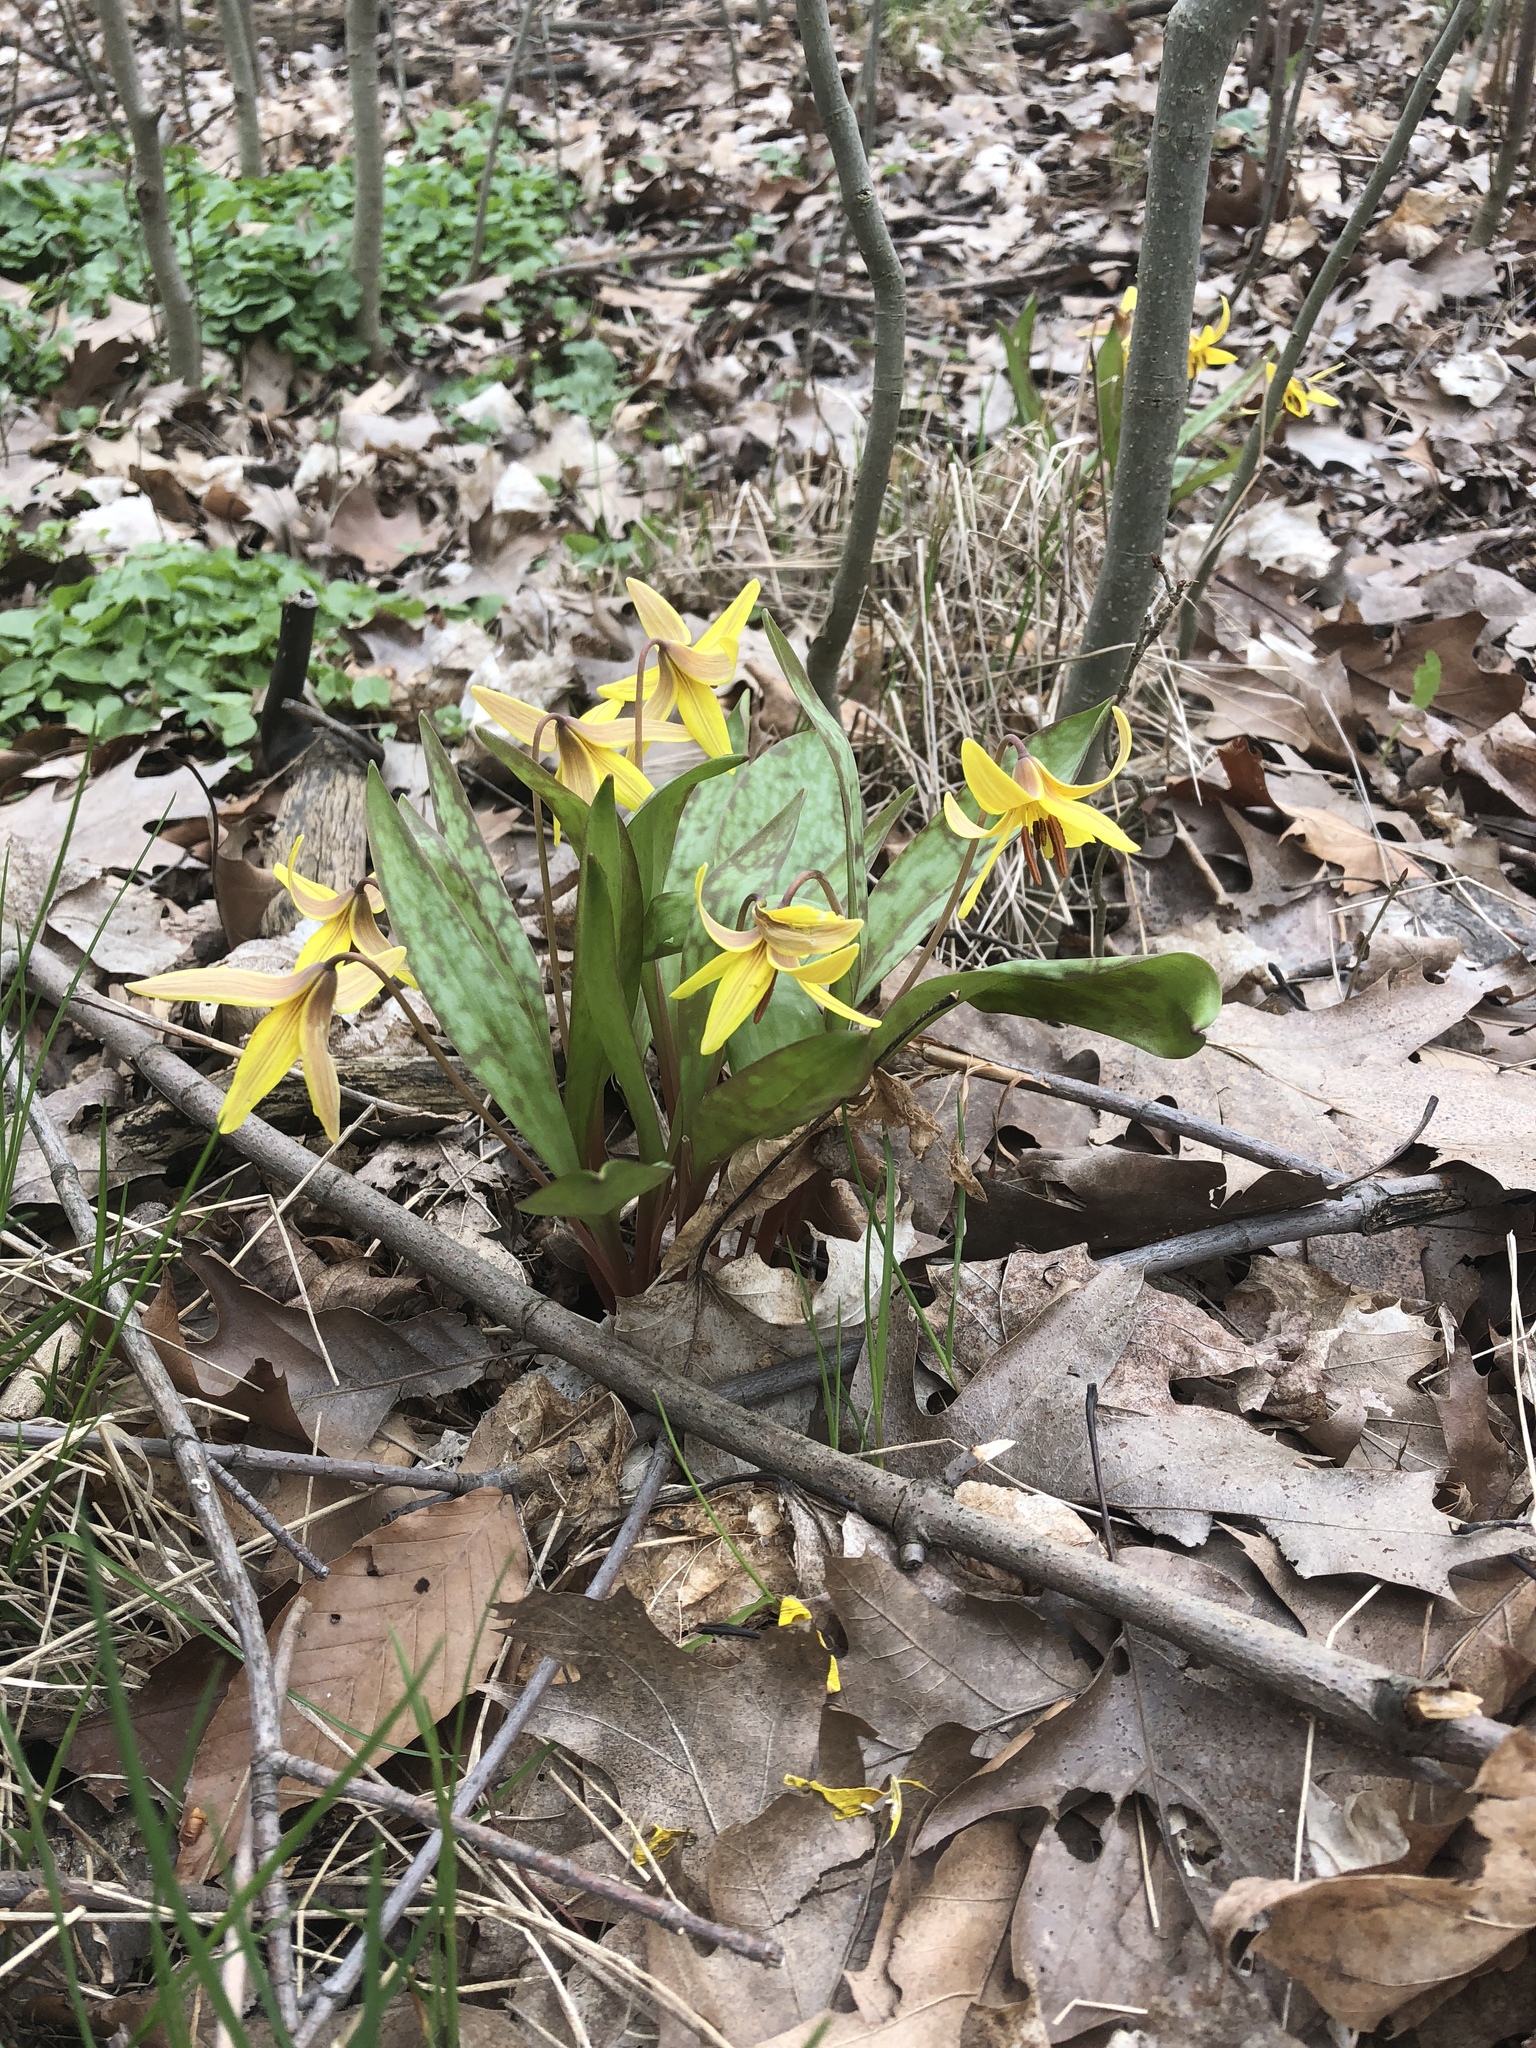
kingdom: Plantae
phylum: Tracheophyta
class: Liliopsida
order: Liliales
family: Liliaceae
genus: Erythronium
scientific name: Erythronium americanum
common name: Yellow adder's-tongue
